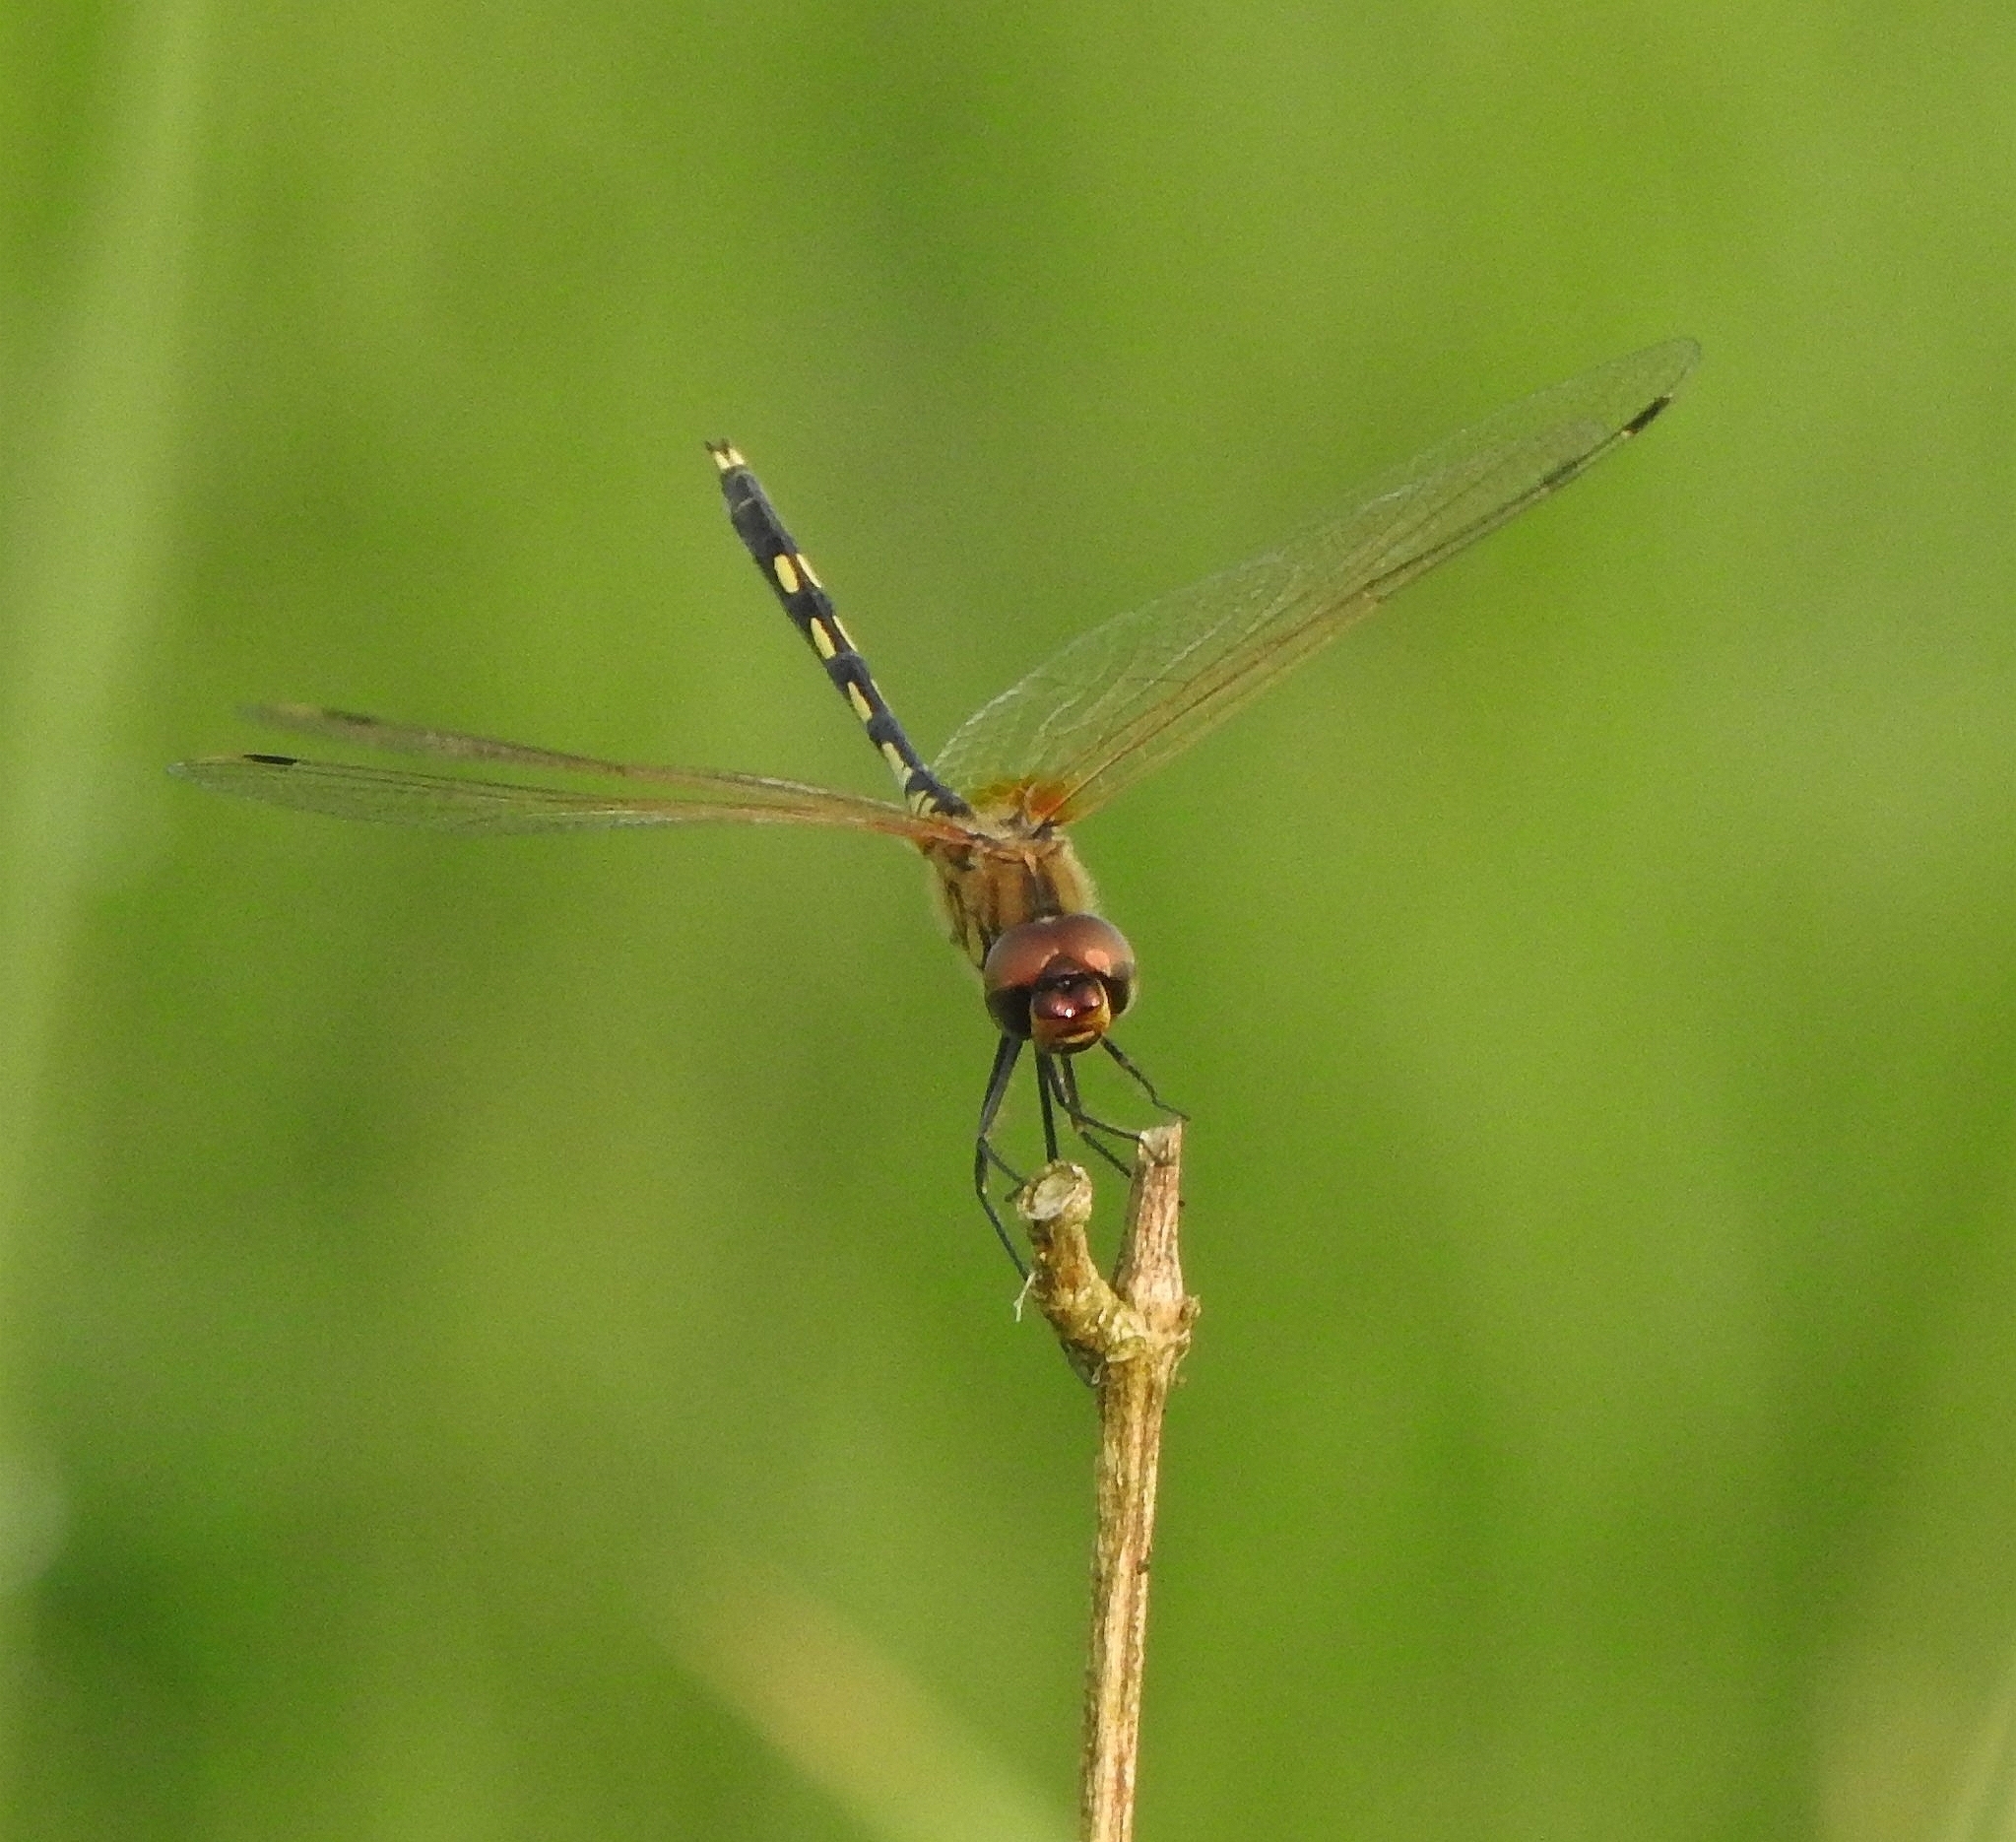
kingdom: Animalia
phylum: Arthropoda
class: Insecta
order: Odonata
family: Libellulidae
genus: Trithemis
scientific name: Trithemis pallidinervis
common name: Dancing dropwing
